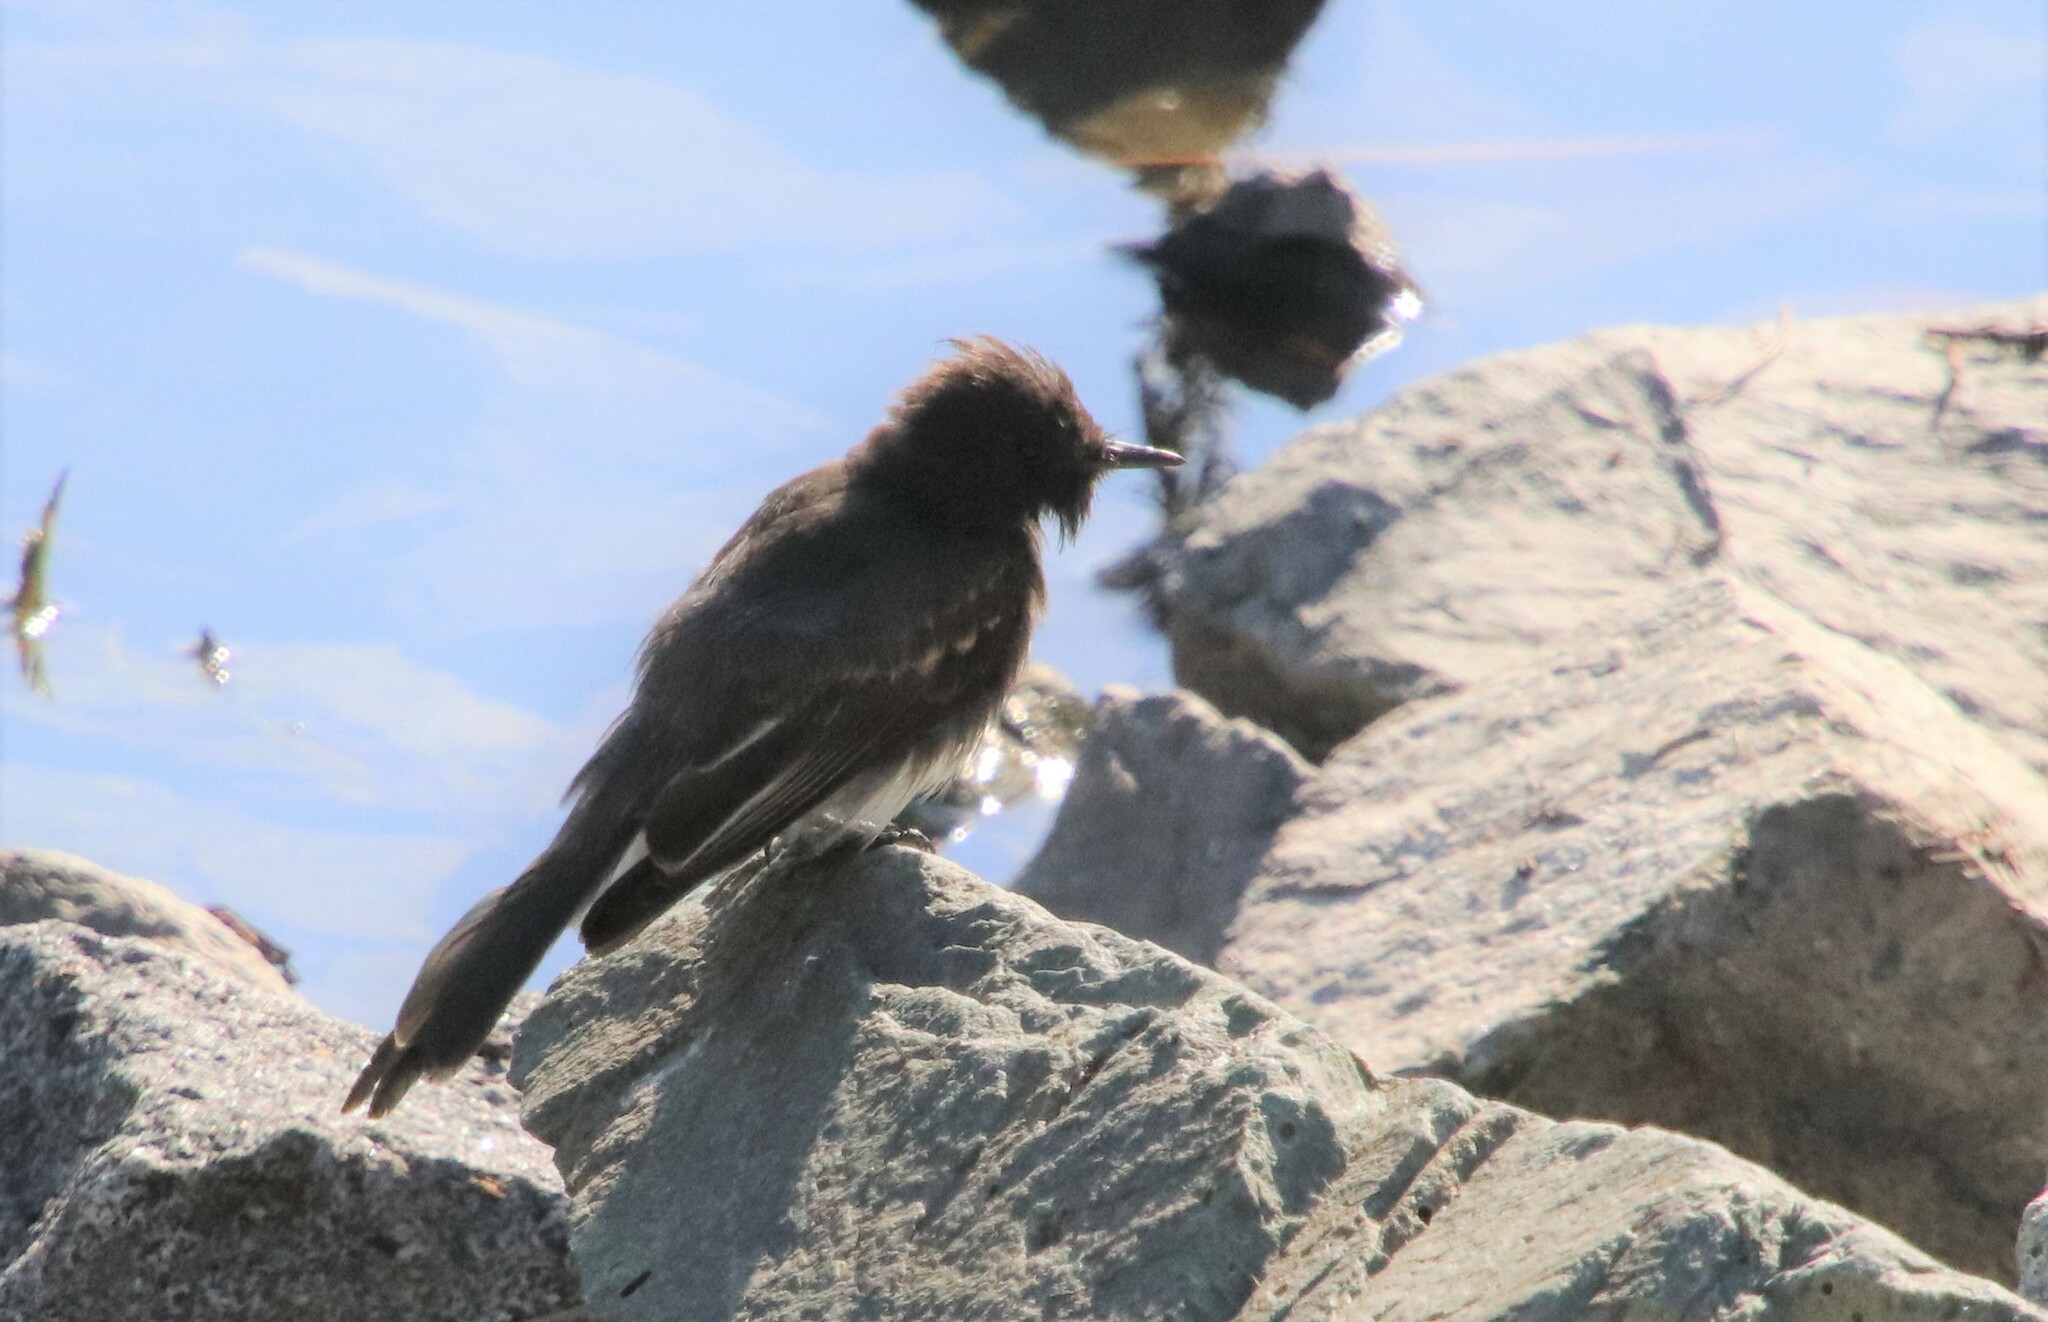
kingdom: Animalia
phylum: Chordata
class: Aves
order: Passeriformes
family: Tyrannidae
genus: Sayornis
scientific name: Sayornis nigricans
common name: Black phoebe
